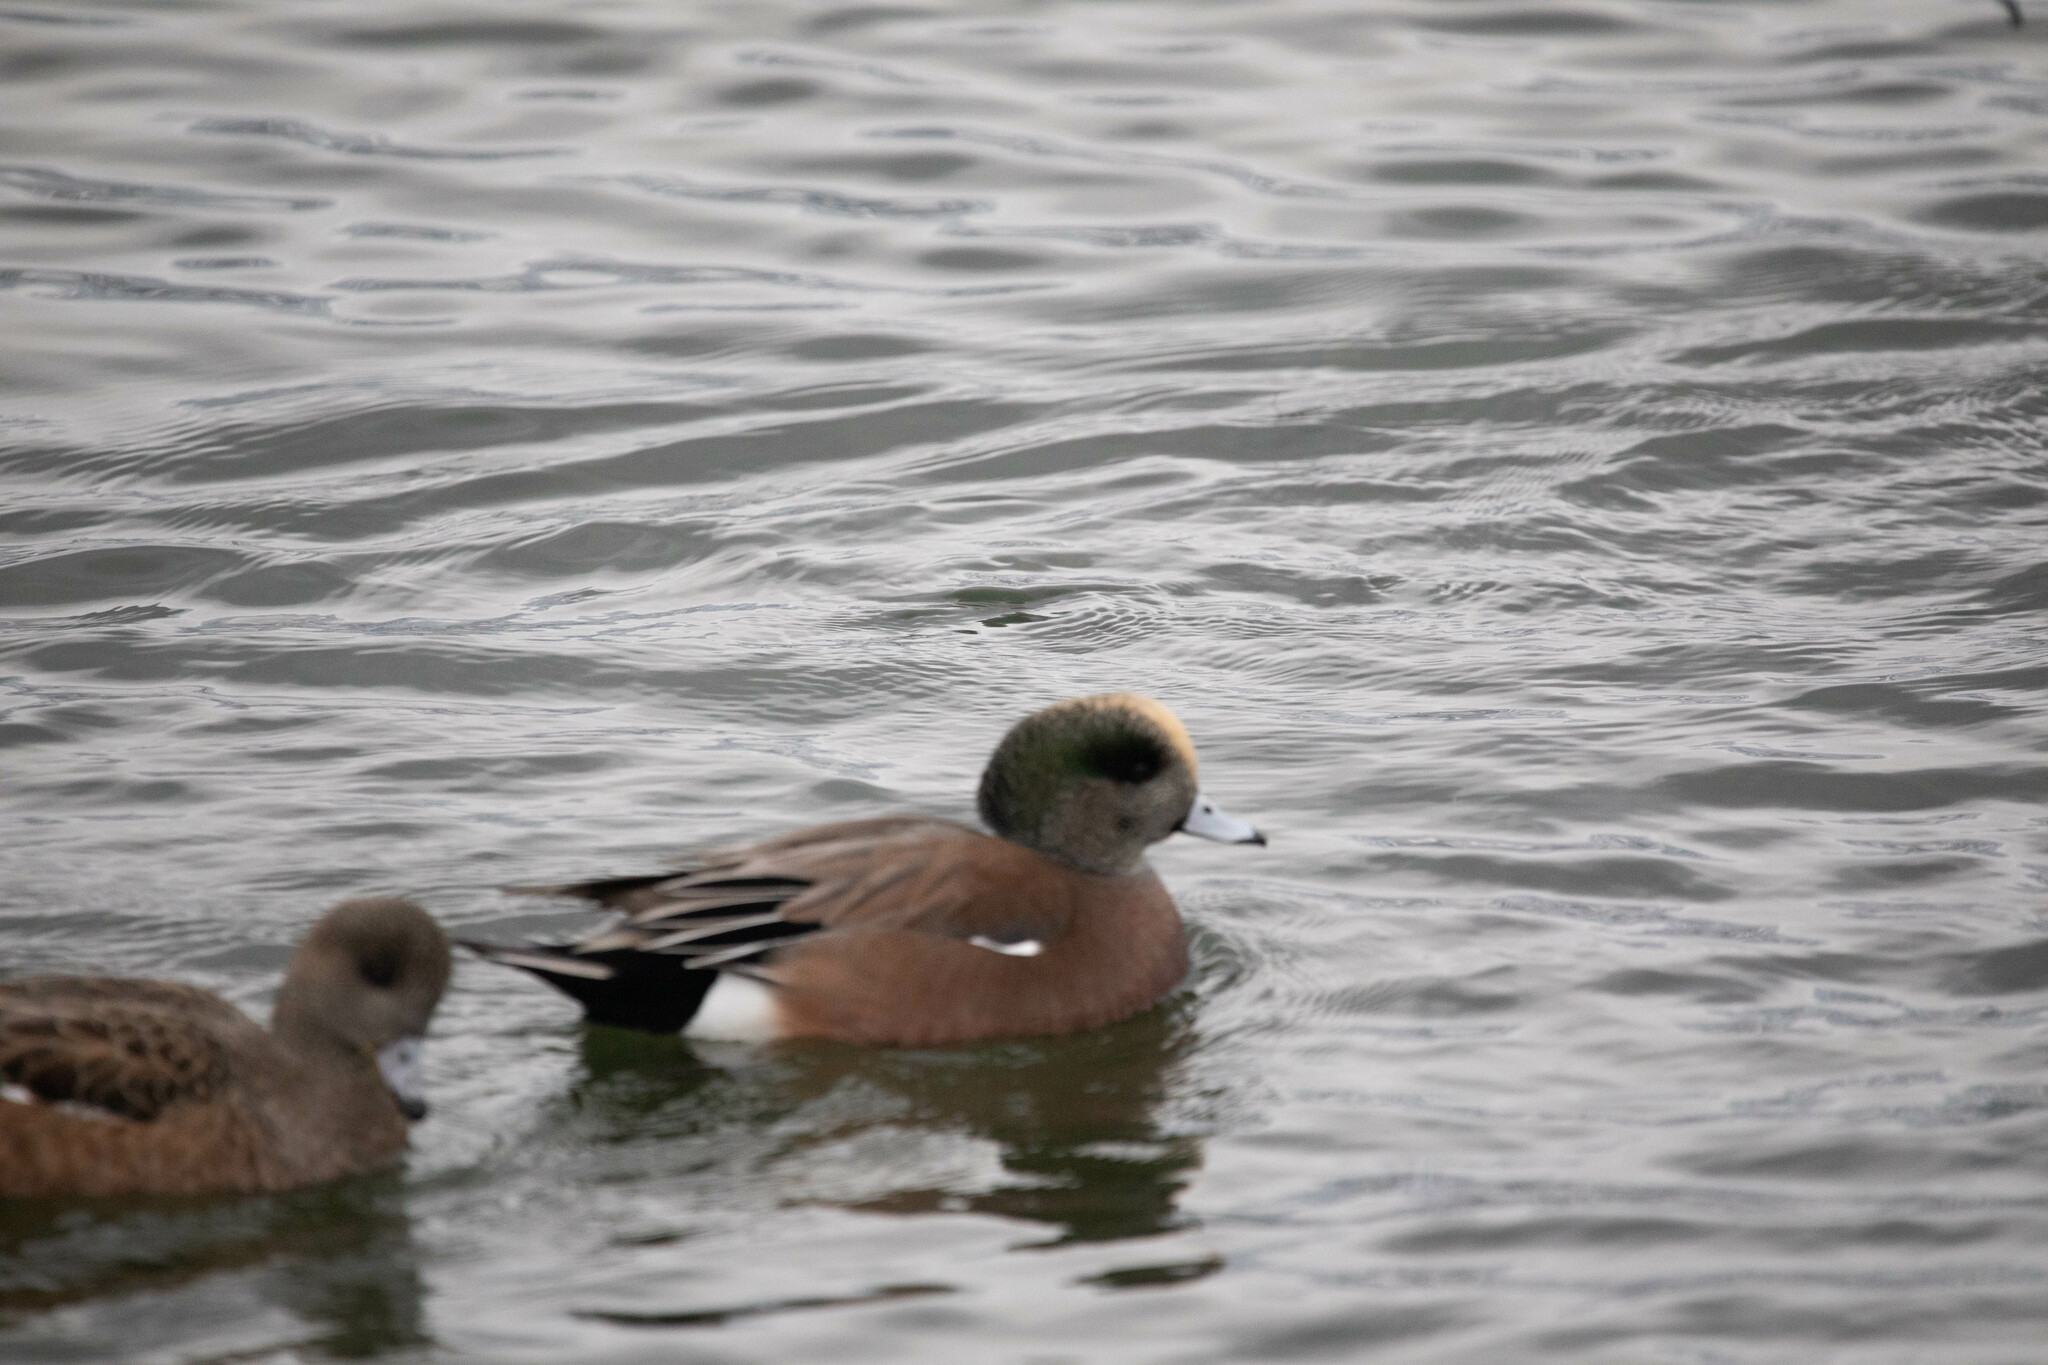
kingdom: Animalia
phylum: Chordata
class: Aves
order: Anseriformes
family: Anatidae
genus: Mareca
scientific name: Mareca americana
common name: American wigeon
